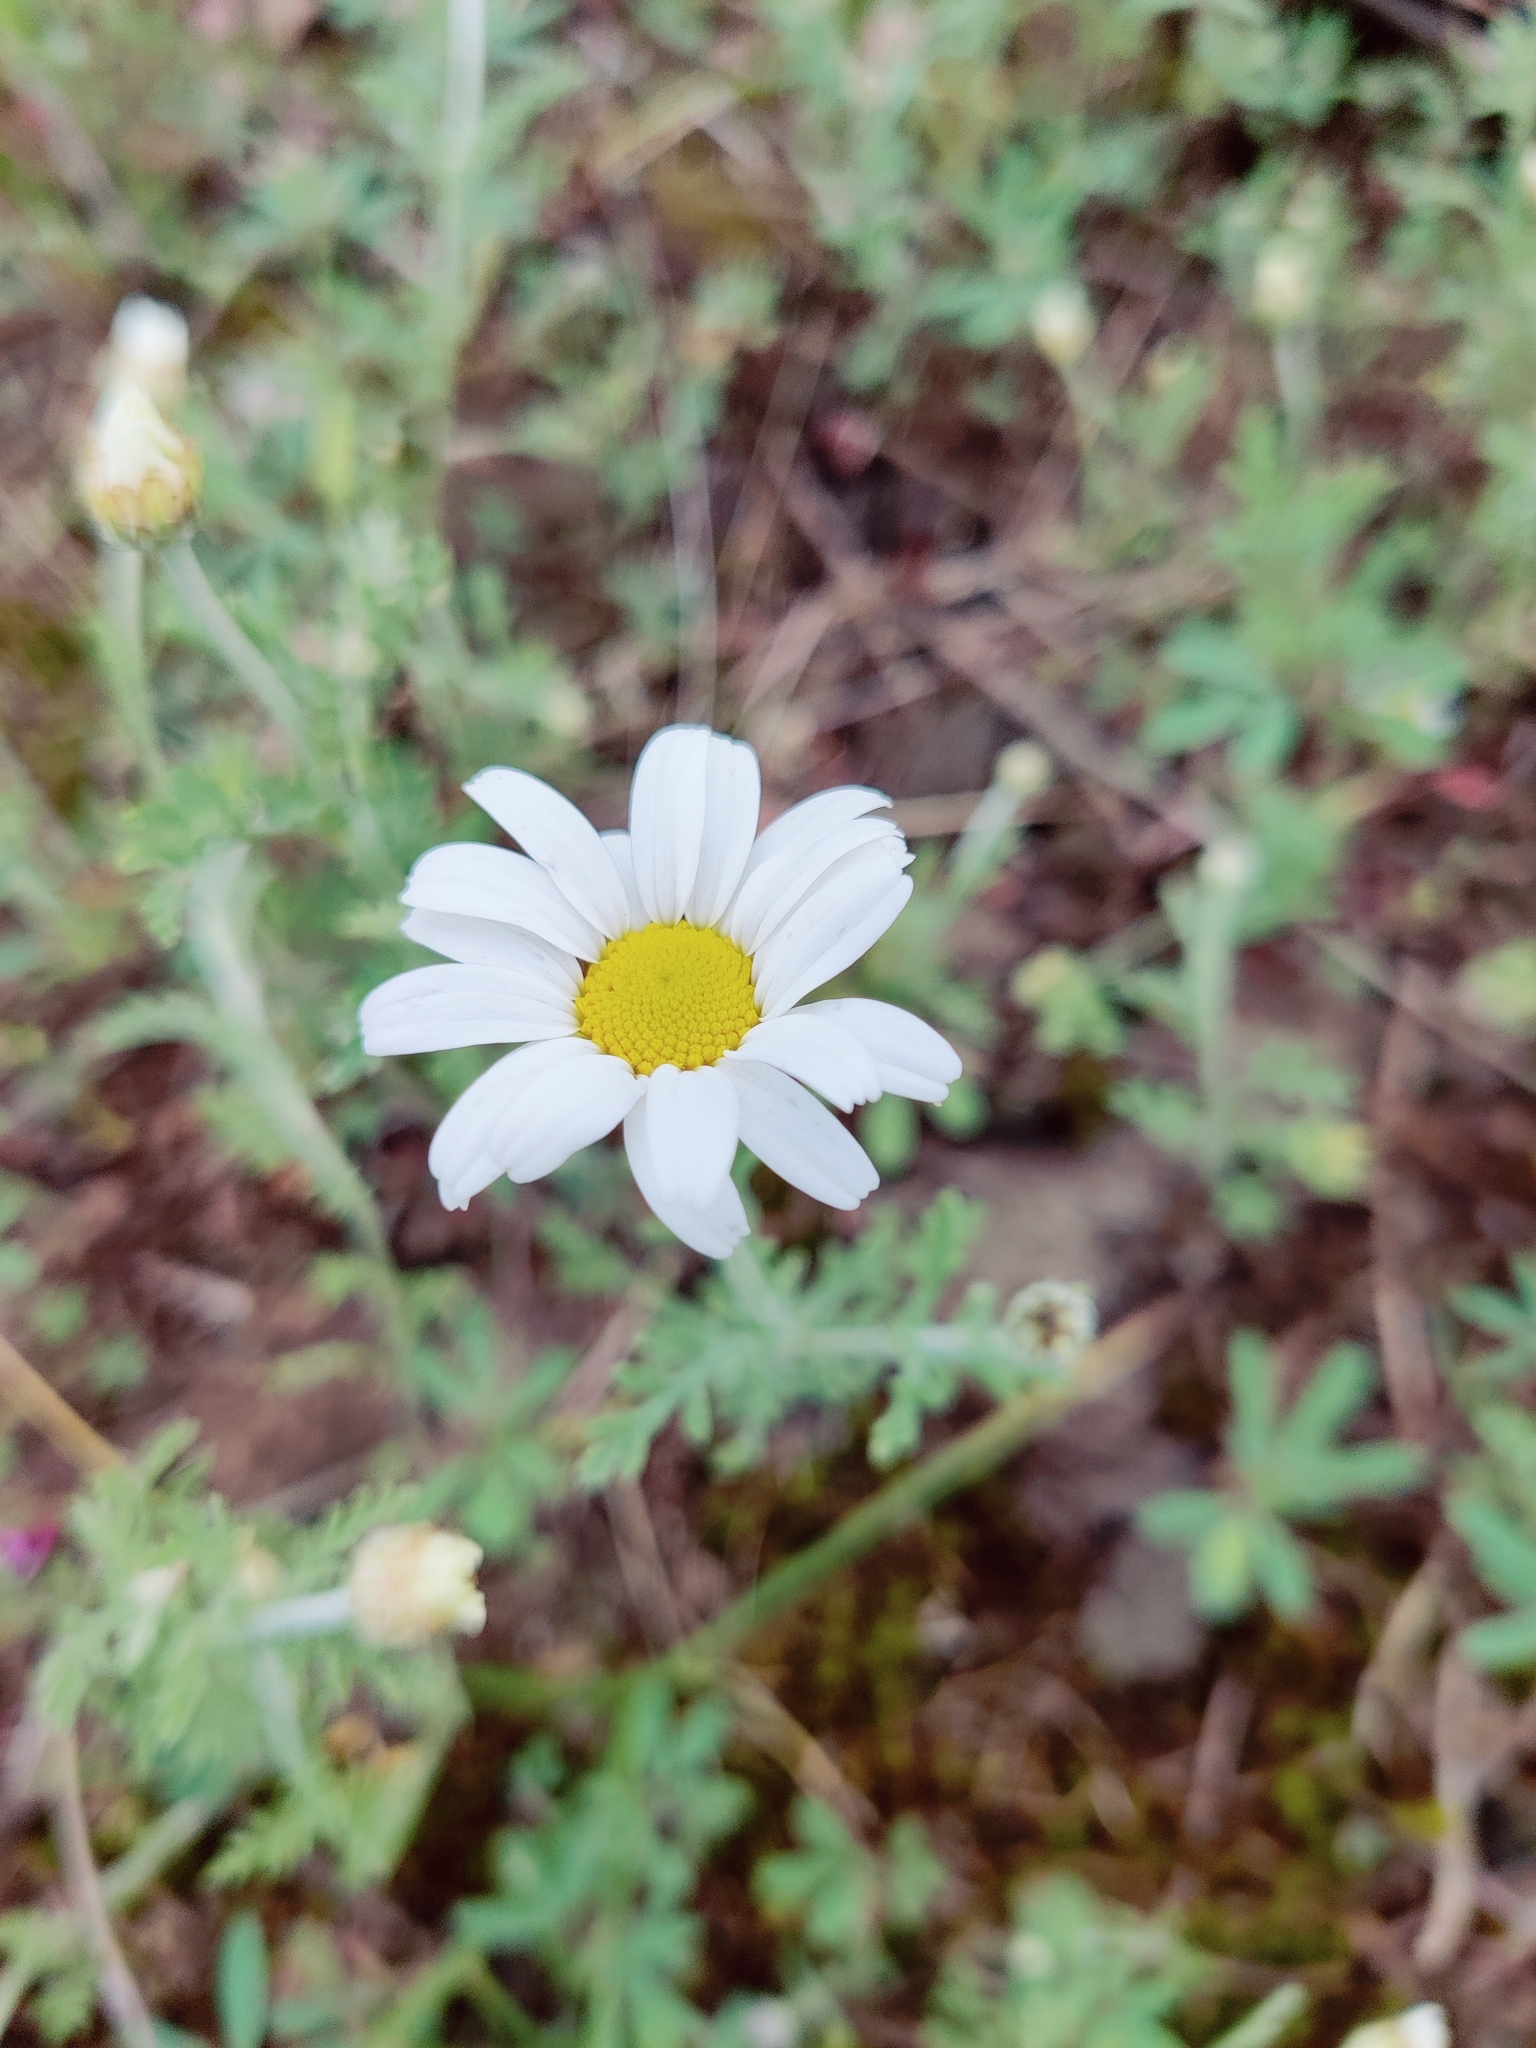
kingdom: Plantae
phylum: Tracheophyta
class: Magnoliopsida
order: Asterales
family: Asteraceae
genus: Anthemis
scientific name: Anthemis ruthenica
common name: Eastern chamomile
